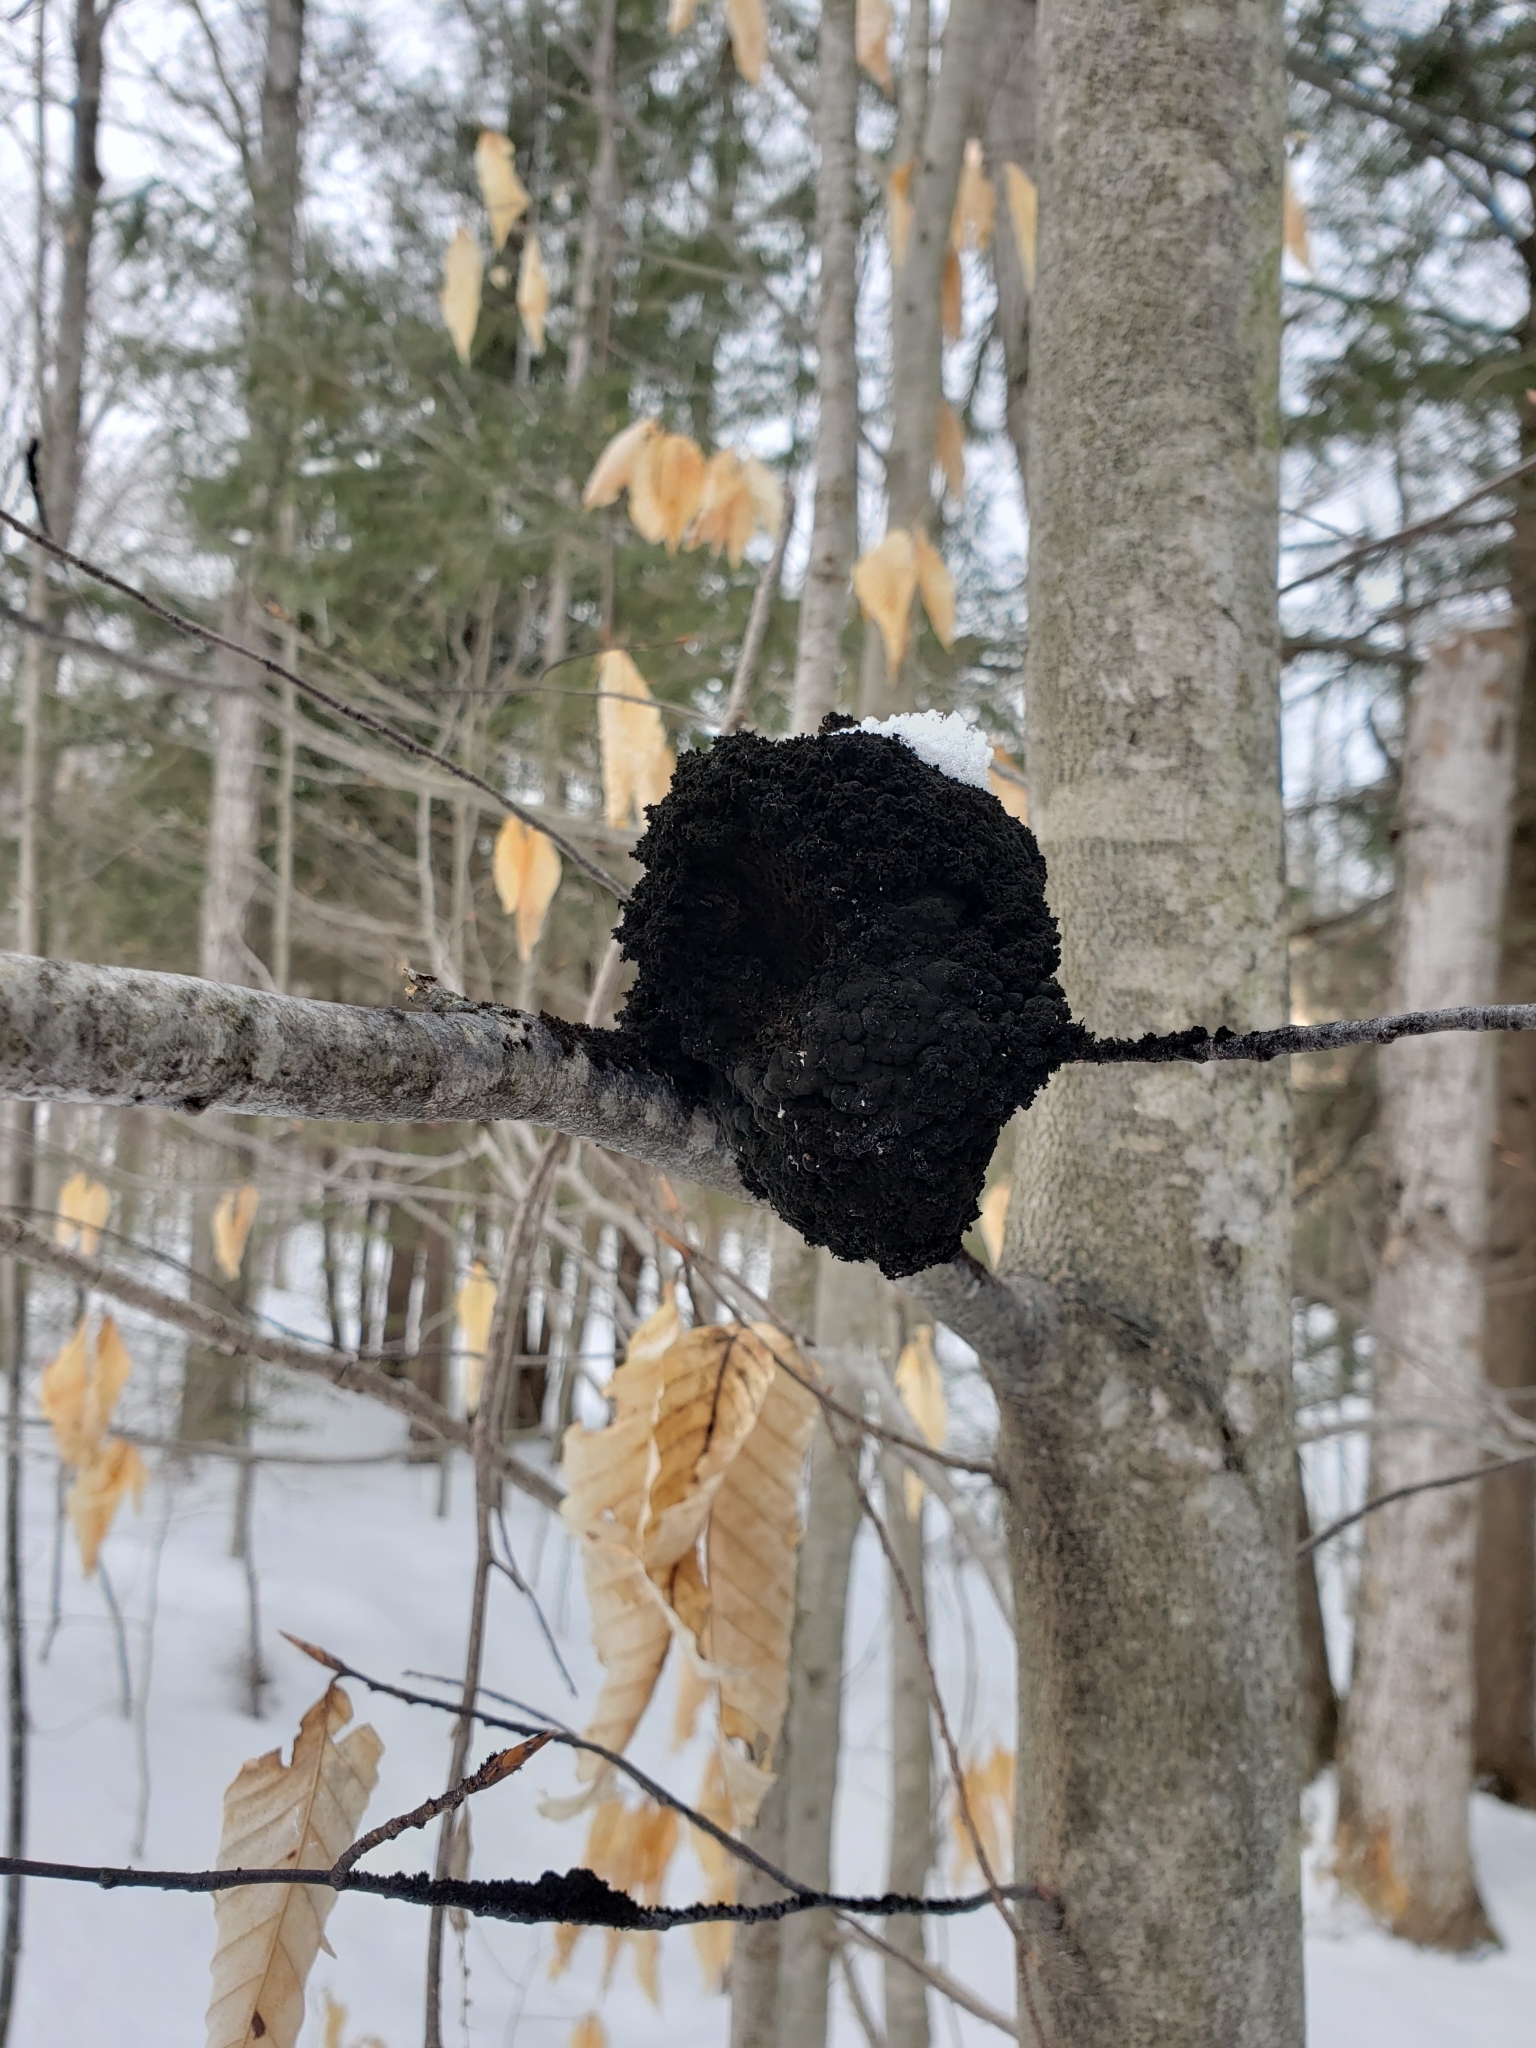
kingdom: Fungi
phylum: Ascomycota
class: Dothideomycetes
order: Capnodiales
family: Capnodiaceae
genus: Scorias
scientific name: Scorias spongiosa
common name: Black sooty mold
